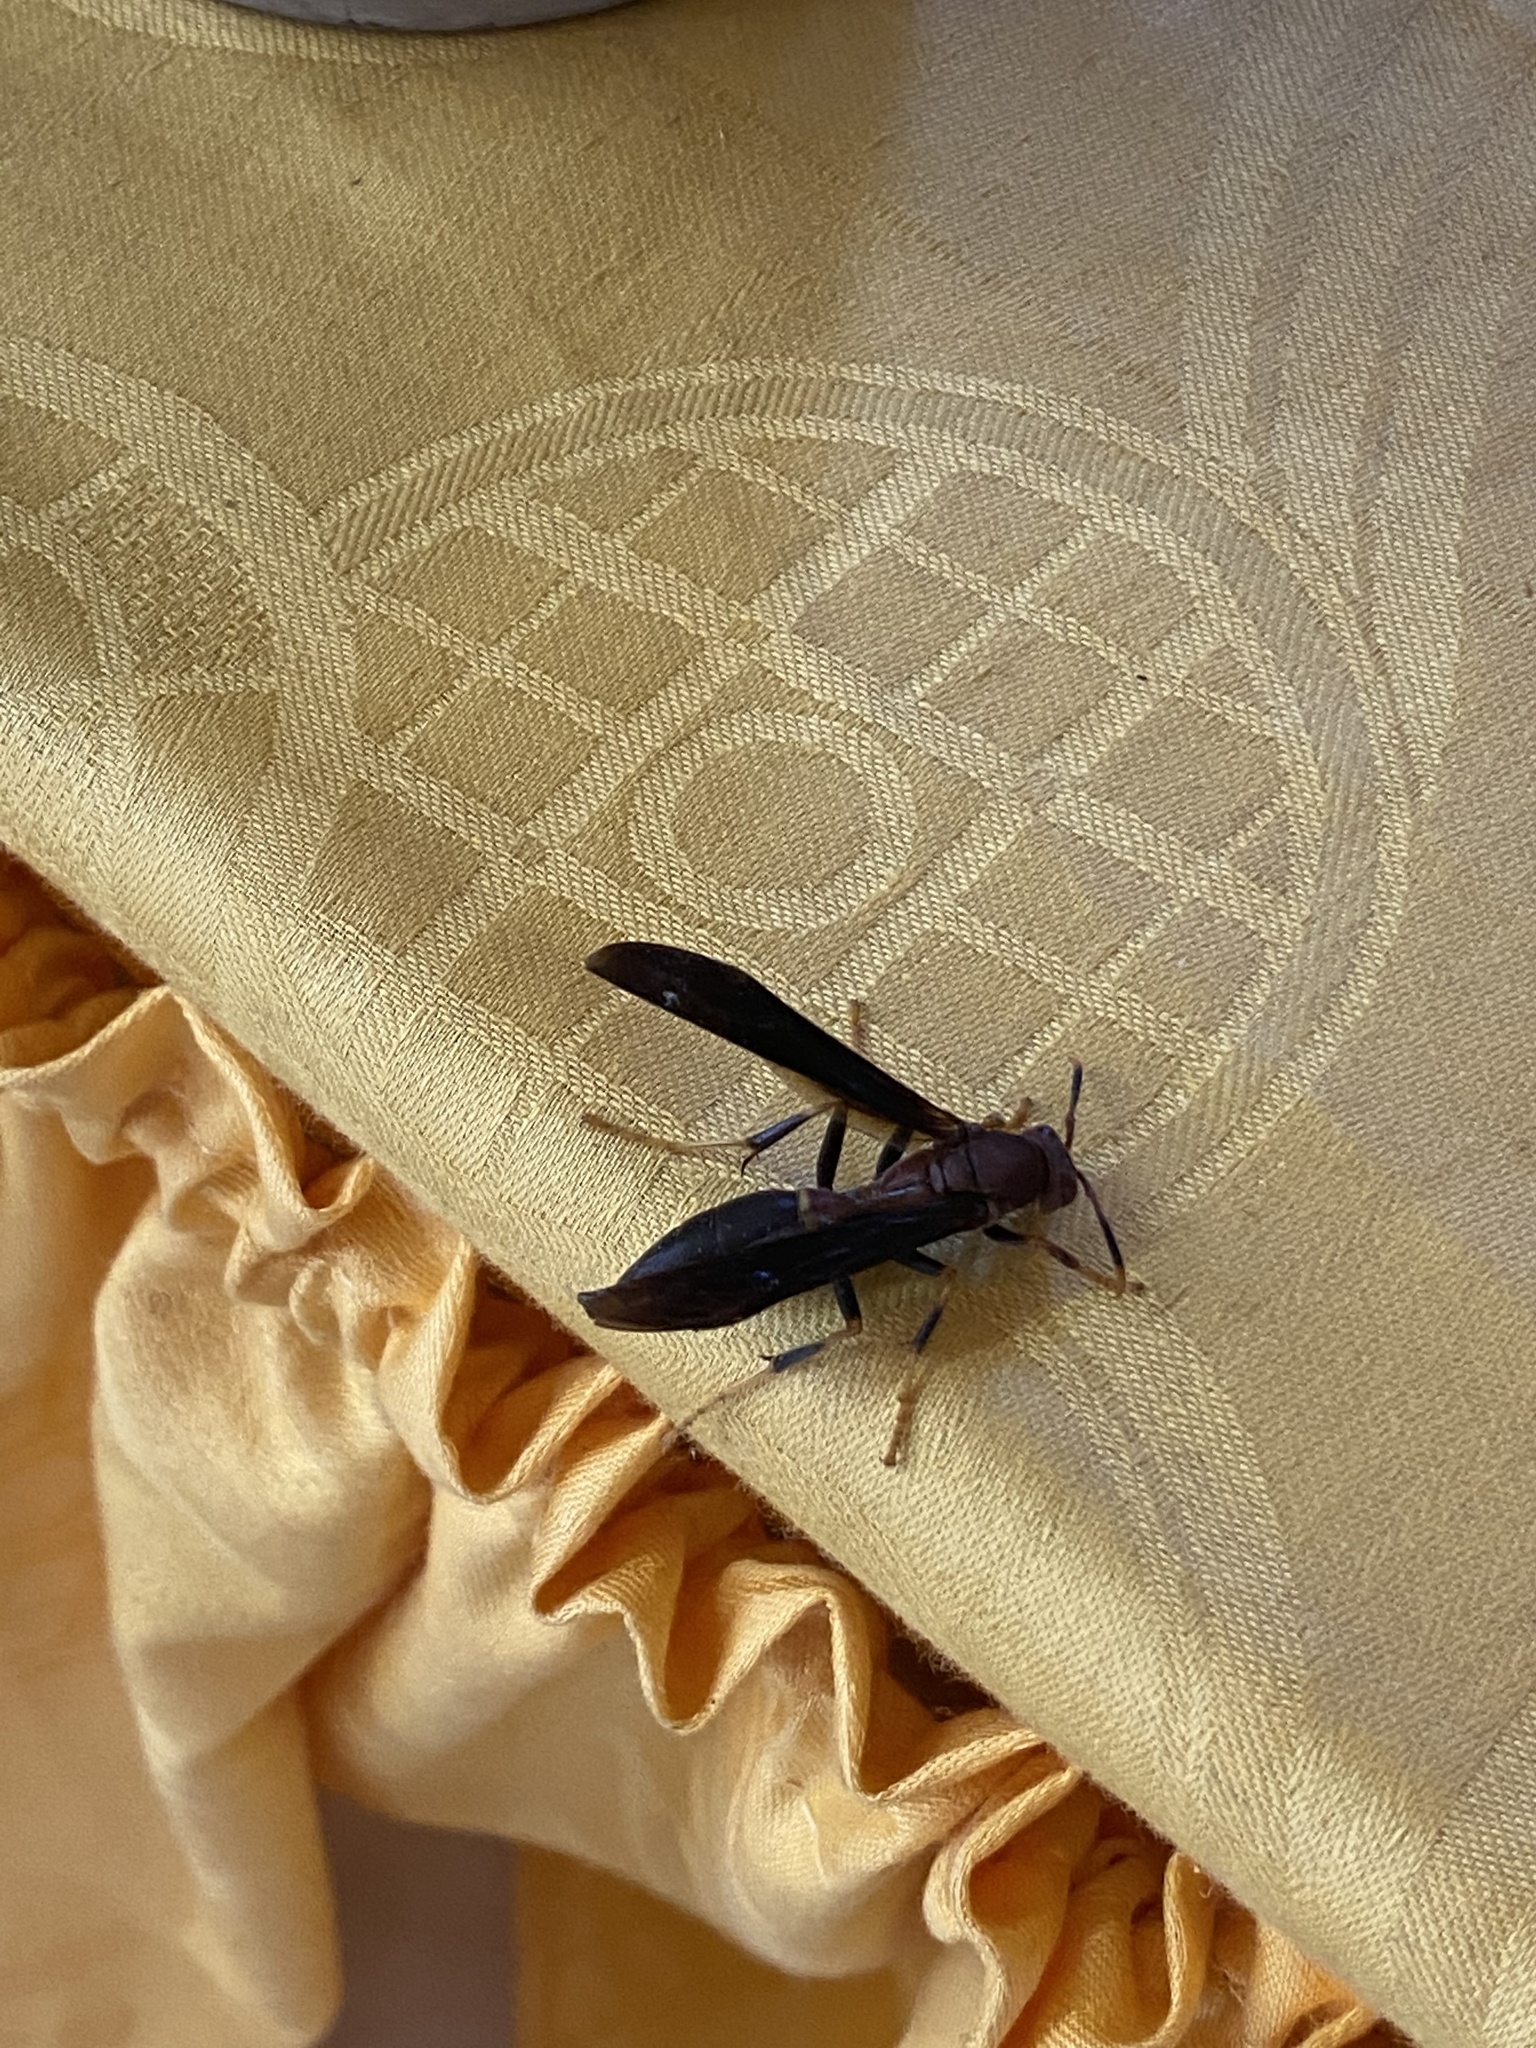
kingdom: Animalia
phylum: Arthropoda
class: Insecta
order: Hymenoptera
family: Eumenidae
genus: Polistes
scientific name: Polistes annularis
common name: Ringed paper wasp
